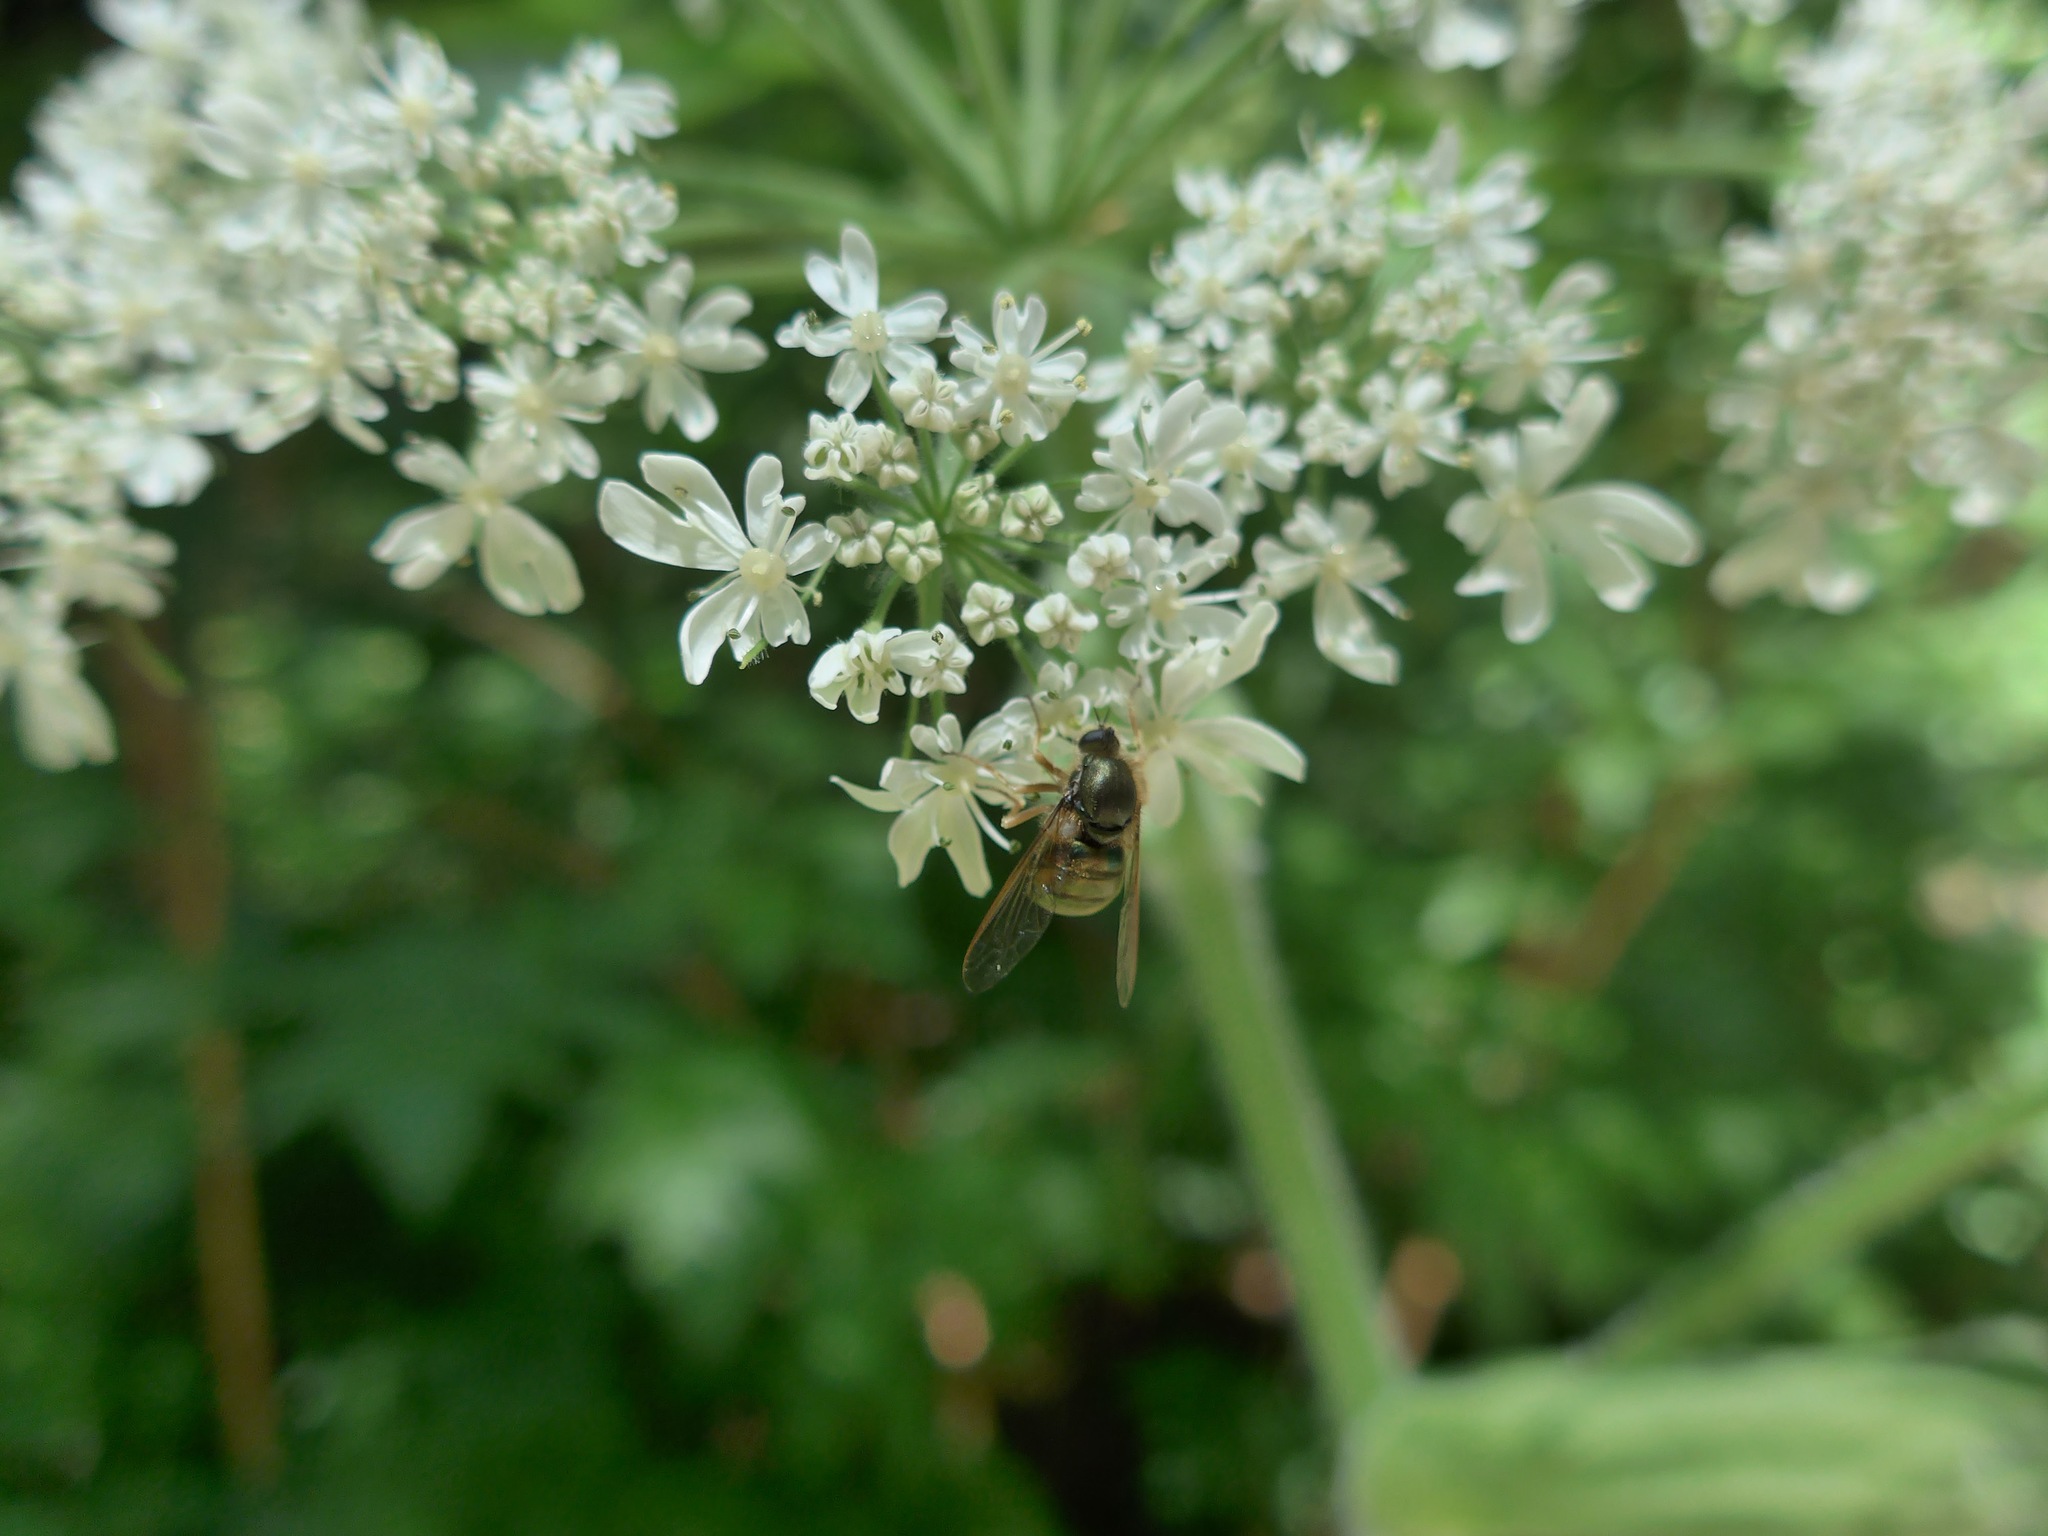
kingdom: Animalia
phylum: Arthropoda
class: Insecta
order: Diptera
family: Acroceridae
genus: Eulonchus
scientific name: Eulonchus tristis
